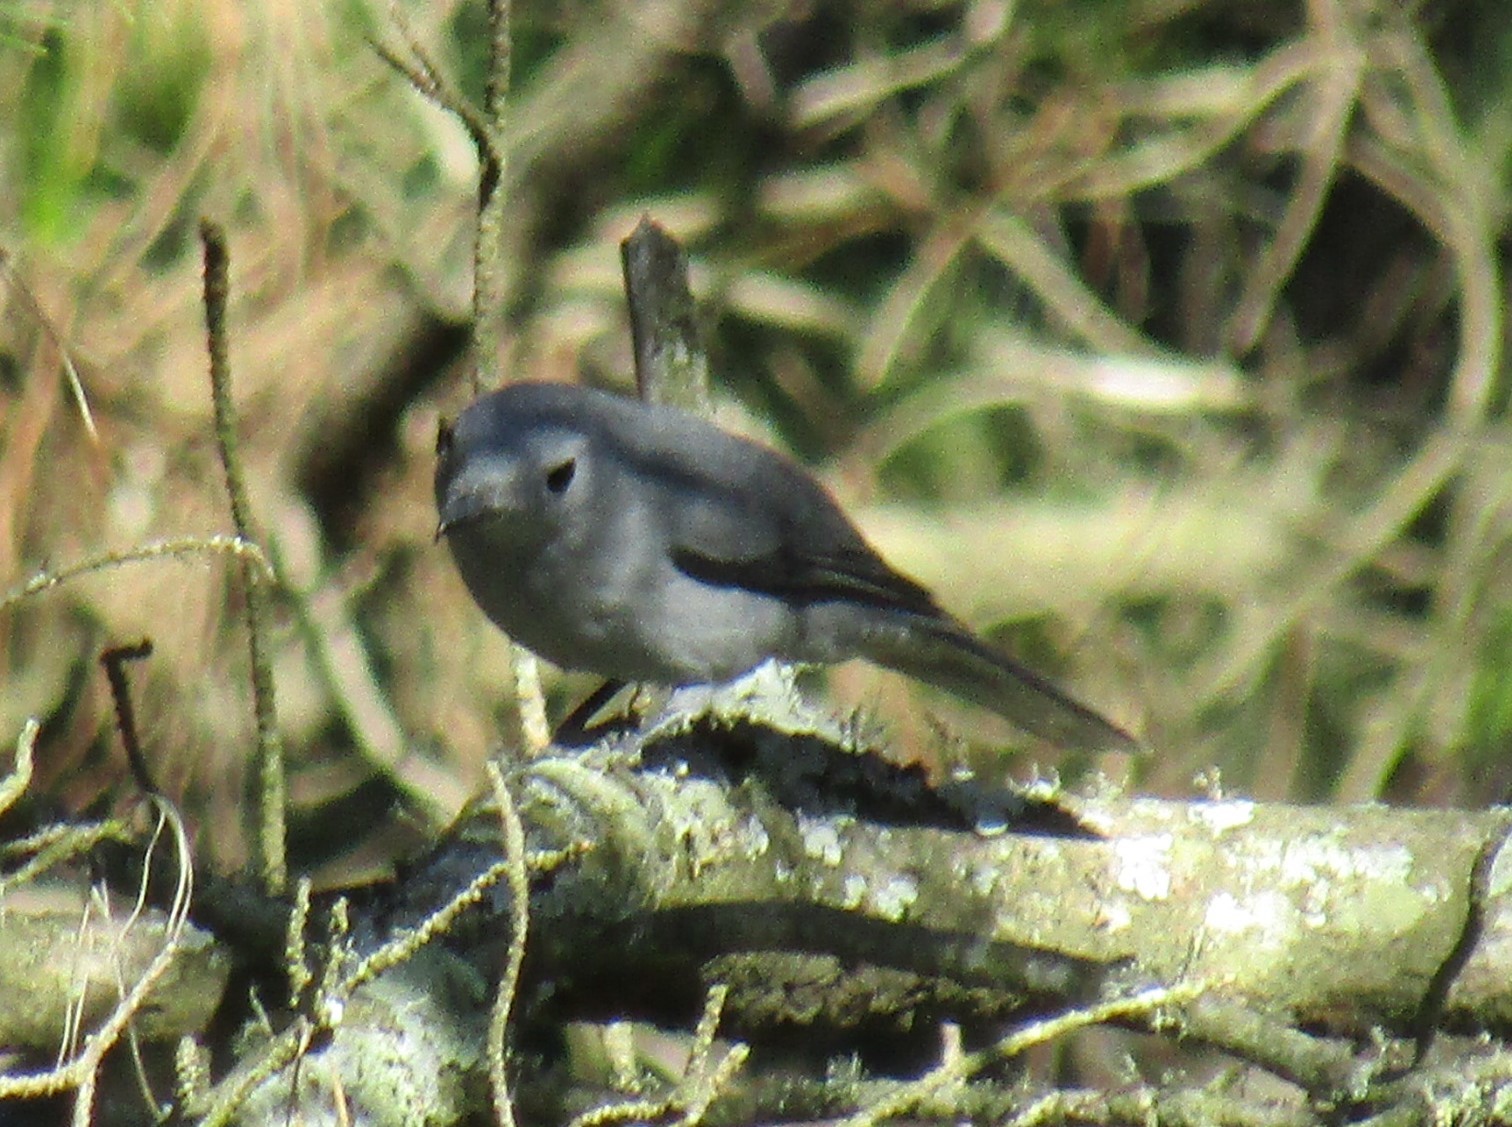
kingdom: Animalia
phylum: Chordata
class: Aves
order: Passeriformes
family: Campephagidae
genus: Coracina
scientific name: Coracina caesia
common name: Grey cuckooshrike
